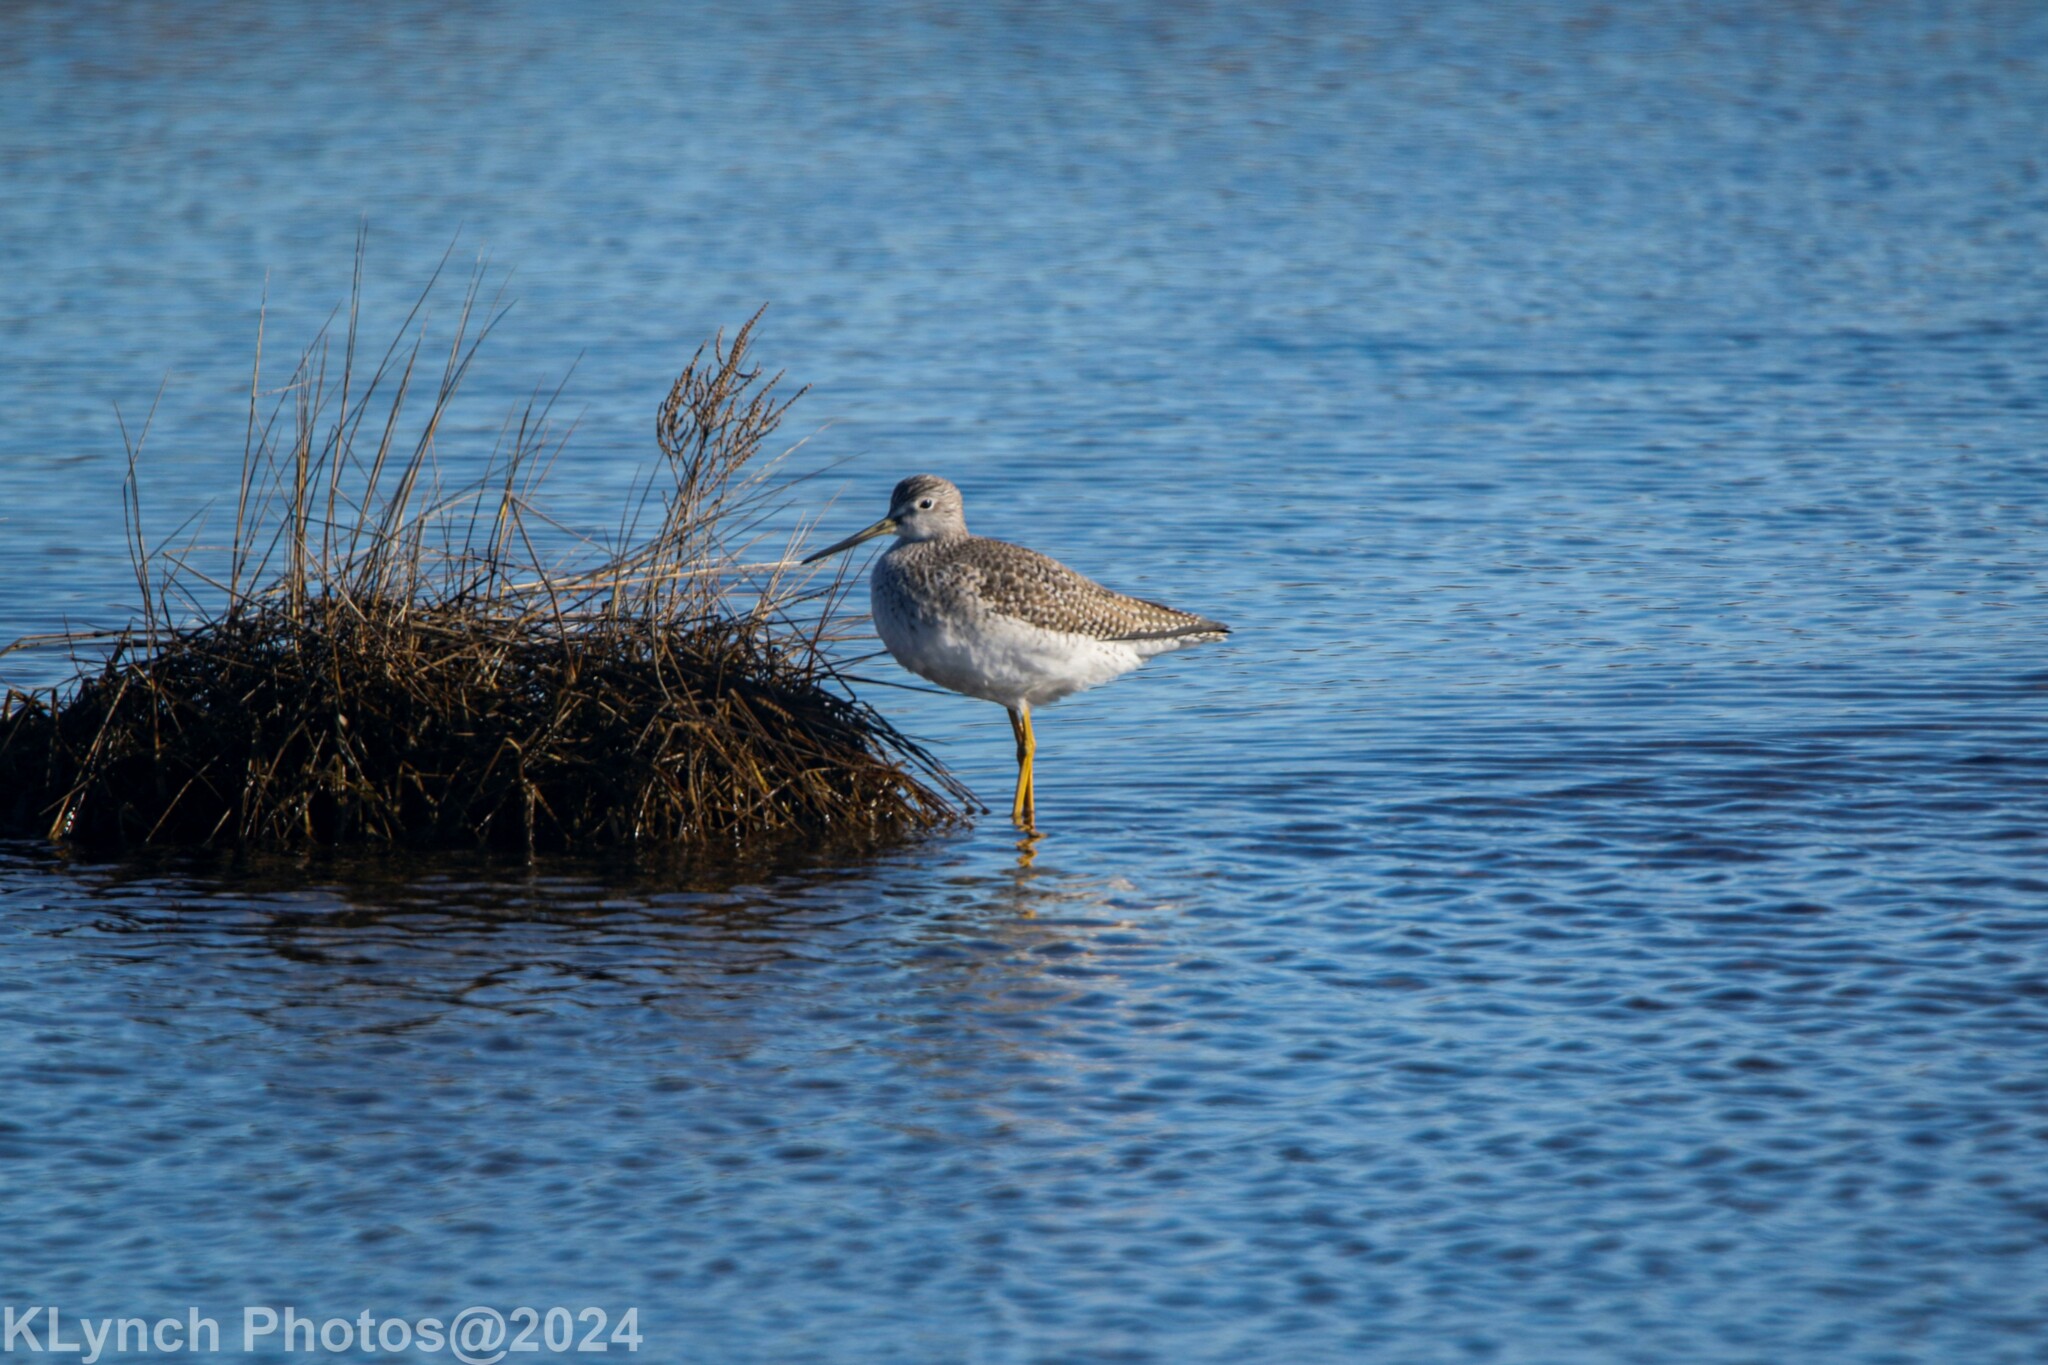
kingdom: Animalia
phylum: Chordata
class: Aves
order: Charadriiformes
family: Scolopacidae
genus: Tringa
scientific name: Tringa melanoleuca
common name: Greater yellowlegs
